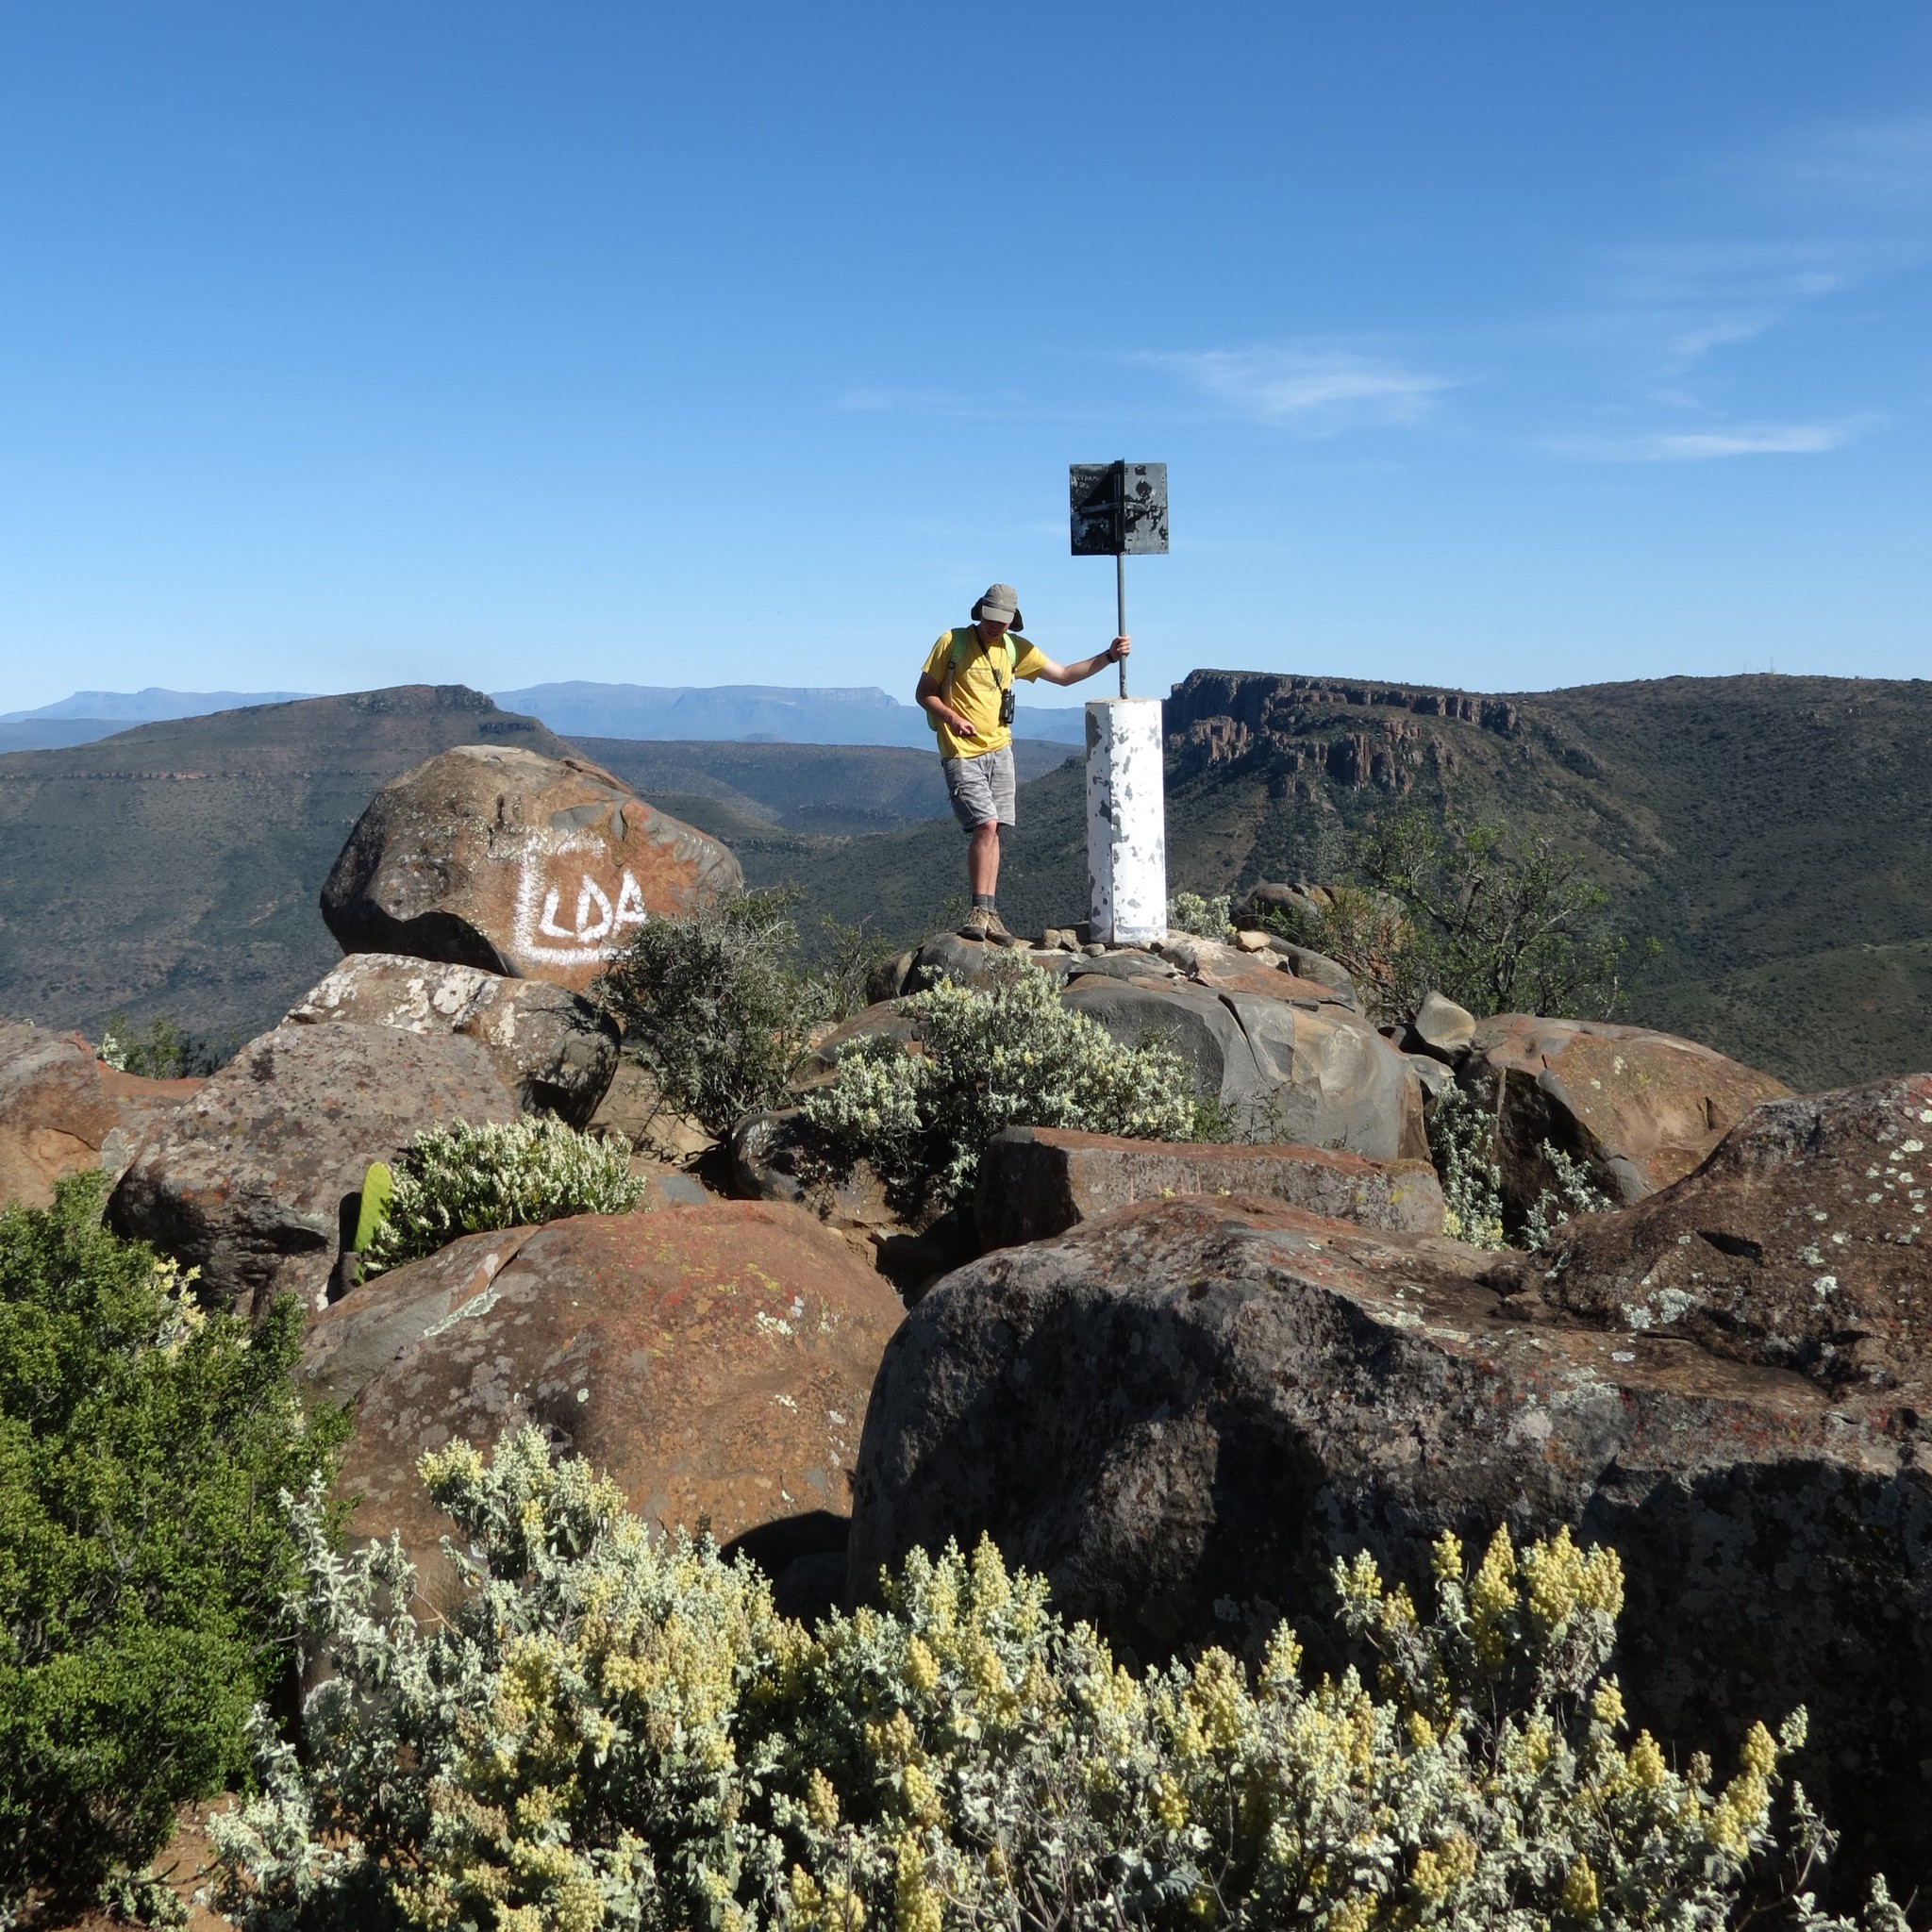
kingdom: Plantae
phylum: Tracheophyta
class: Magnoliopsida
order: Lamiales
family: Scrophulariaceae
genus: Buddleja
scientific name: Buddleja glomerata
